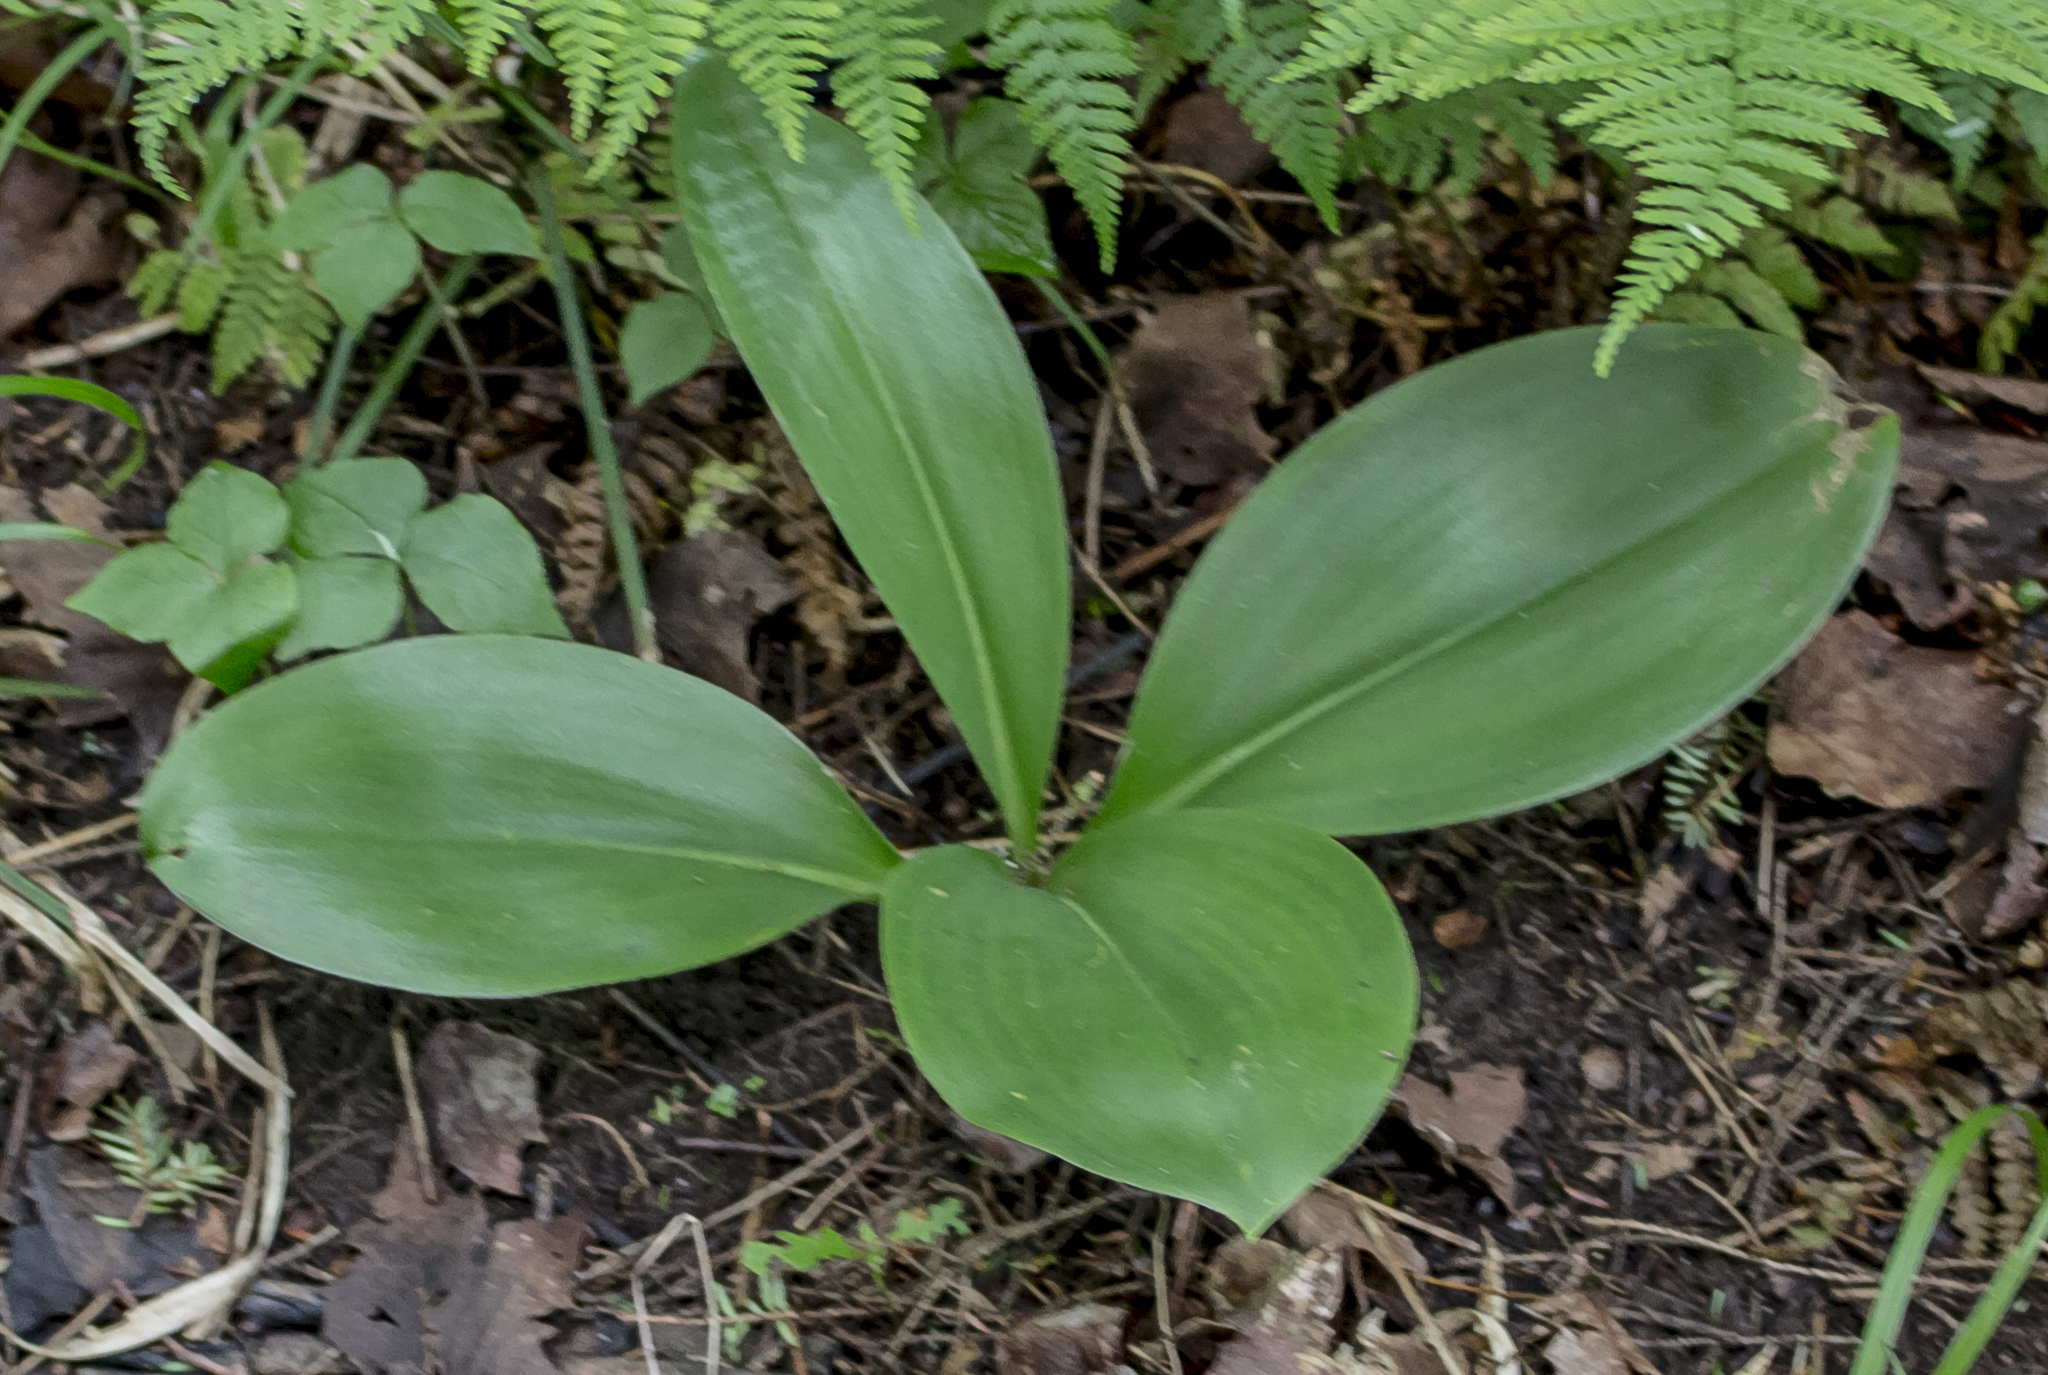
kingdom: Plantae
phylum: Tracheophyta
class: Liliopsida
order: Liliales
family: Liliaceae
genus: Clintonia
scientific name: Clintonia borealis
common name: Yellow clintonia
